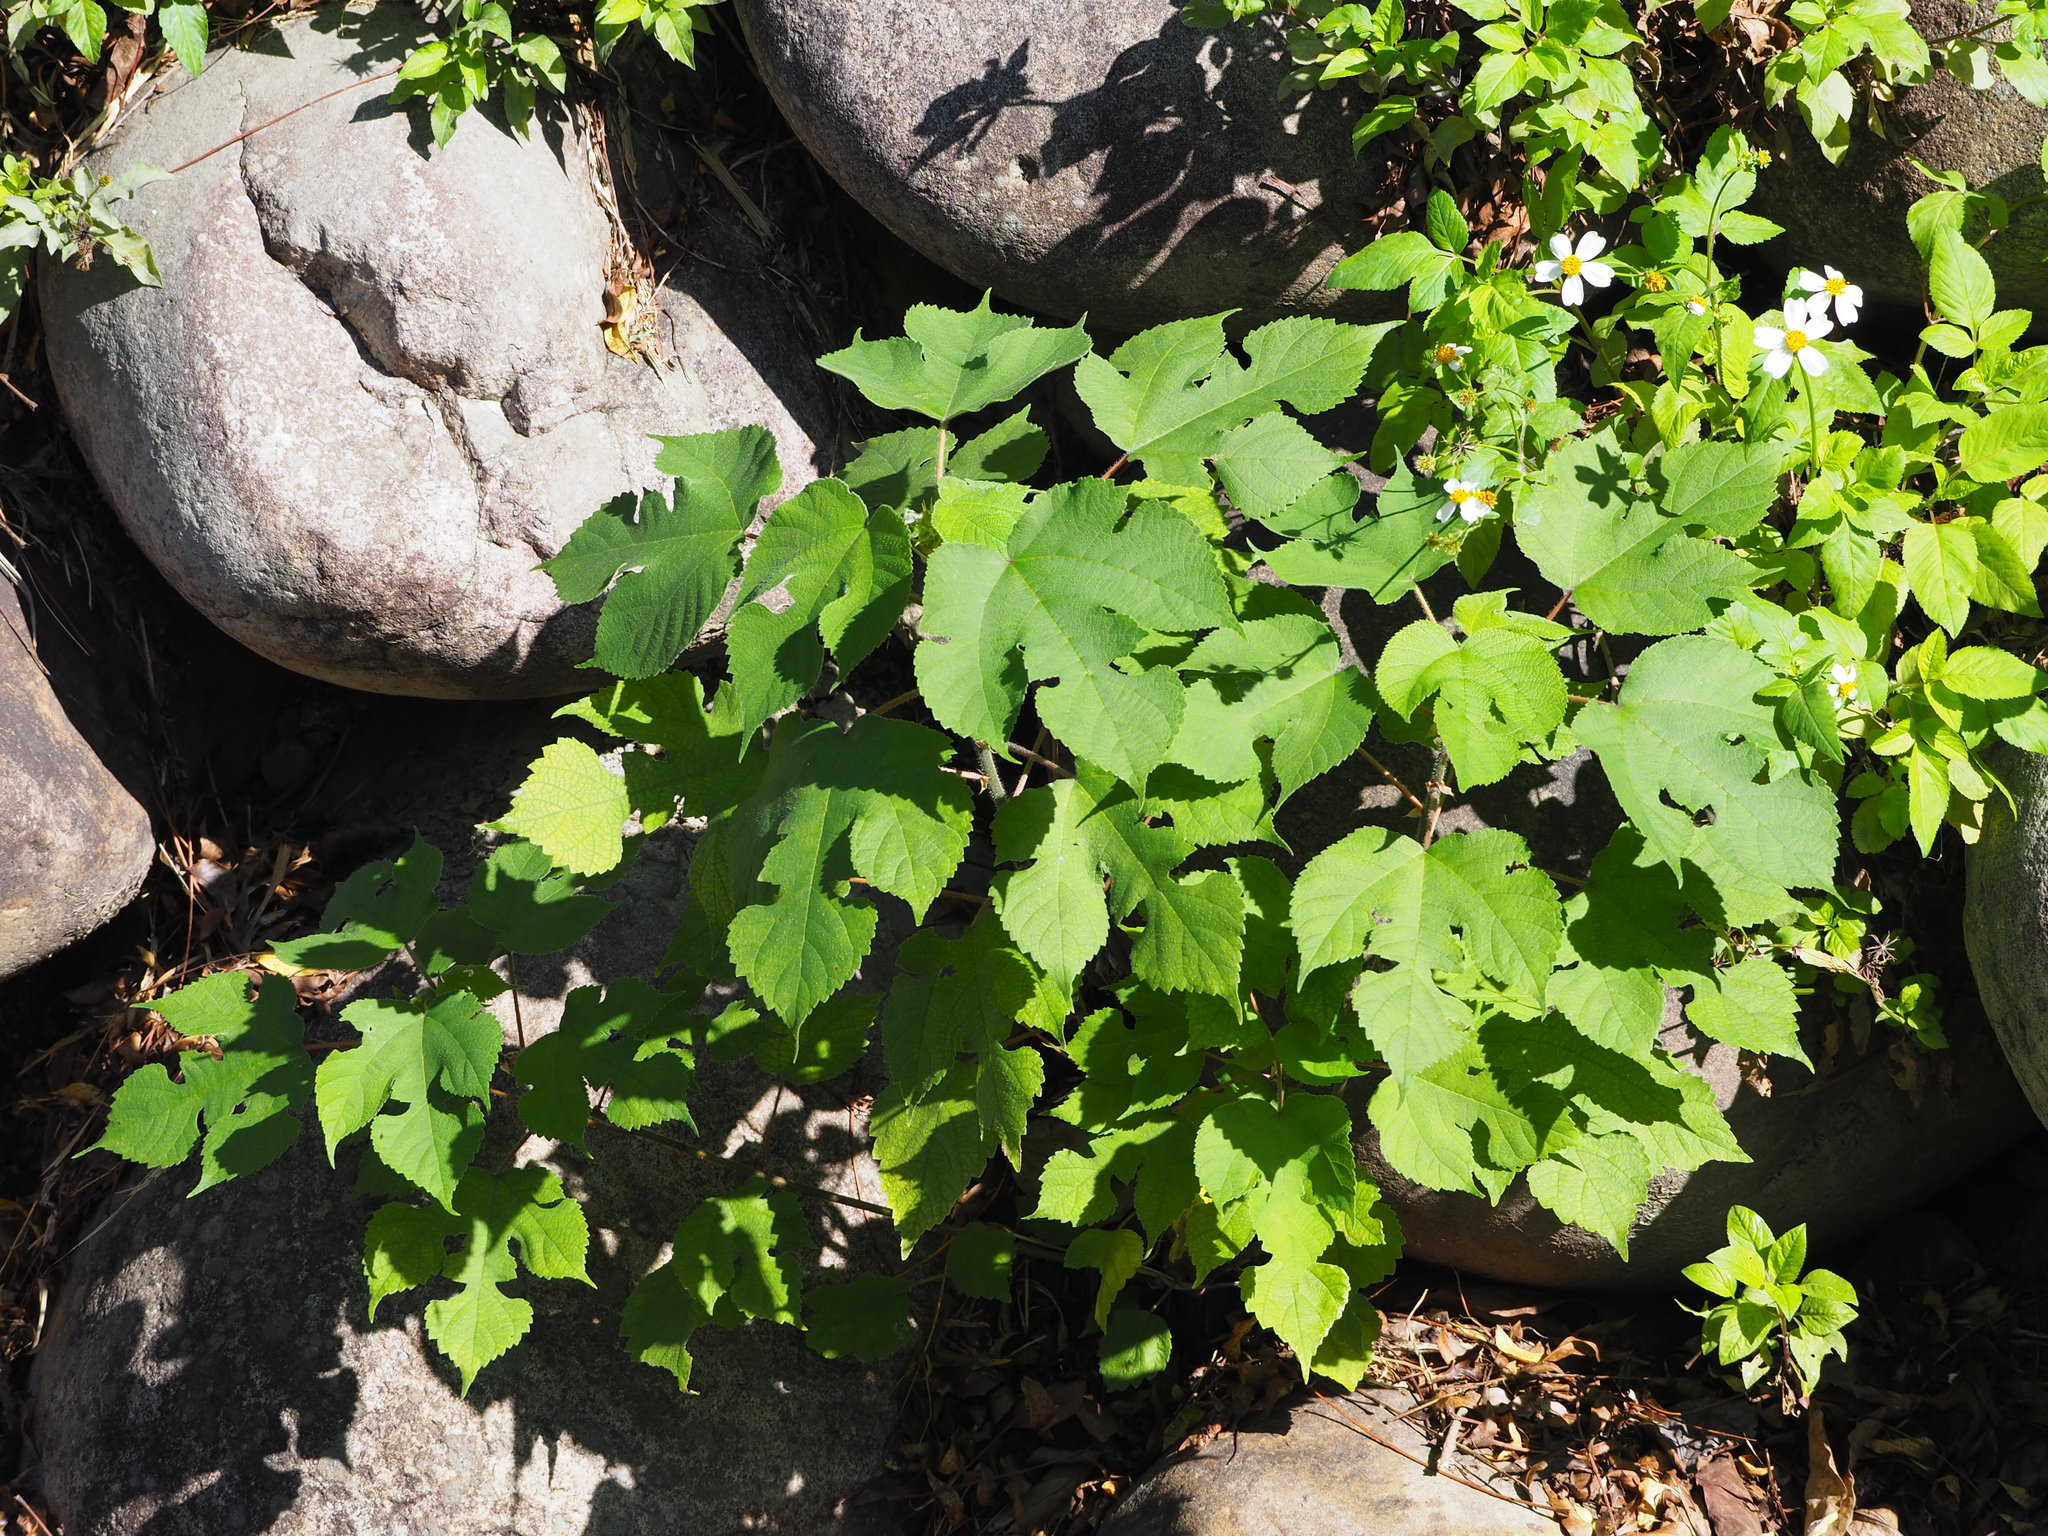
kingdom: Plantae
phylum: Tracheophyta
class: Magnoliopsida
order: Rosales
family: Moraceae
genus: Broussonetia
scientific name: Broussonetia papyrifera
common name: Paper mulberry
